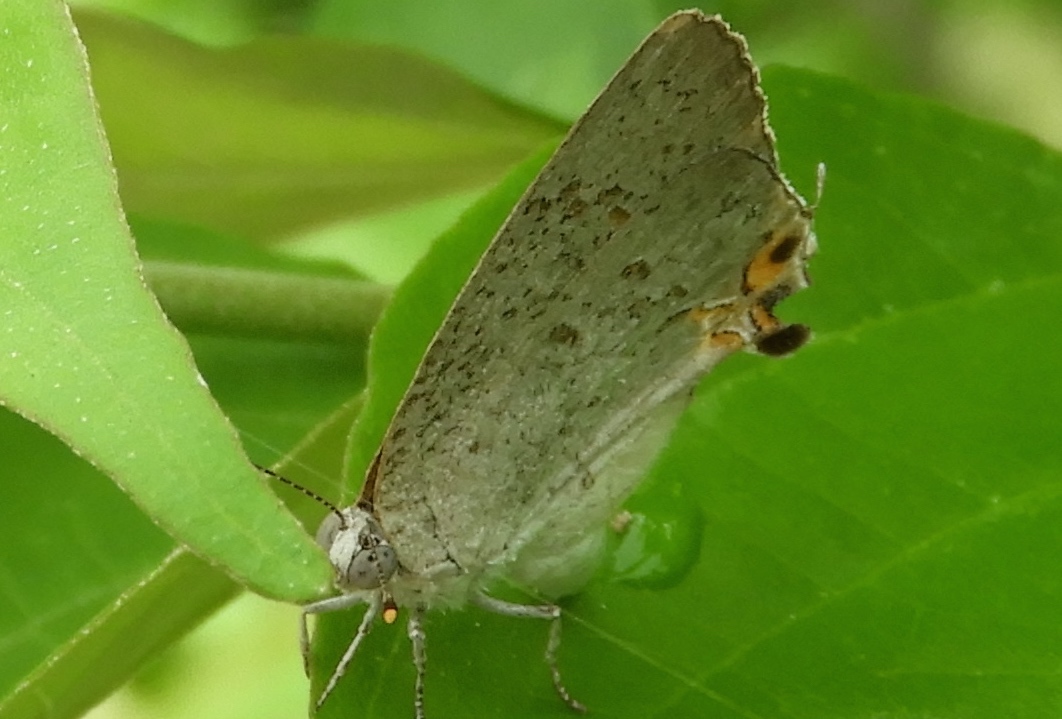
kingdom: Animalia
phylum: Arthropoda
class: Insecta
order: Lepidoptera
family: Lycaenidae
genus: Hypostrymon
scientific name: Hypostrymon critola
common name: Sonoran hairstreak
